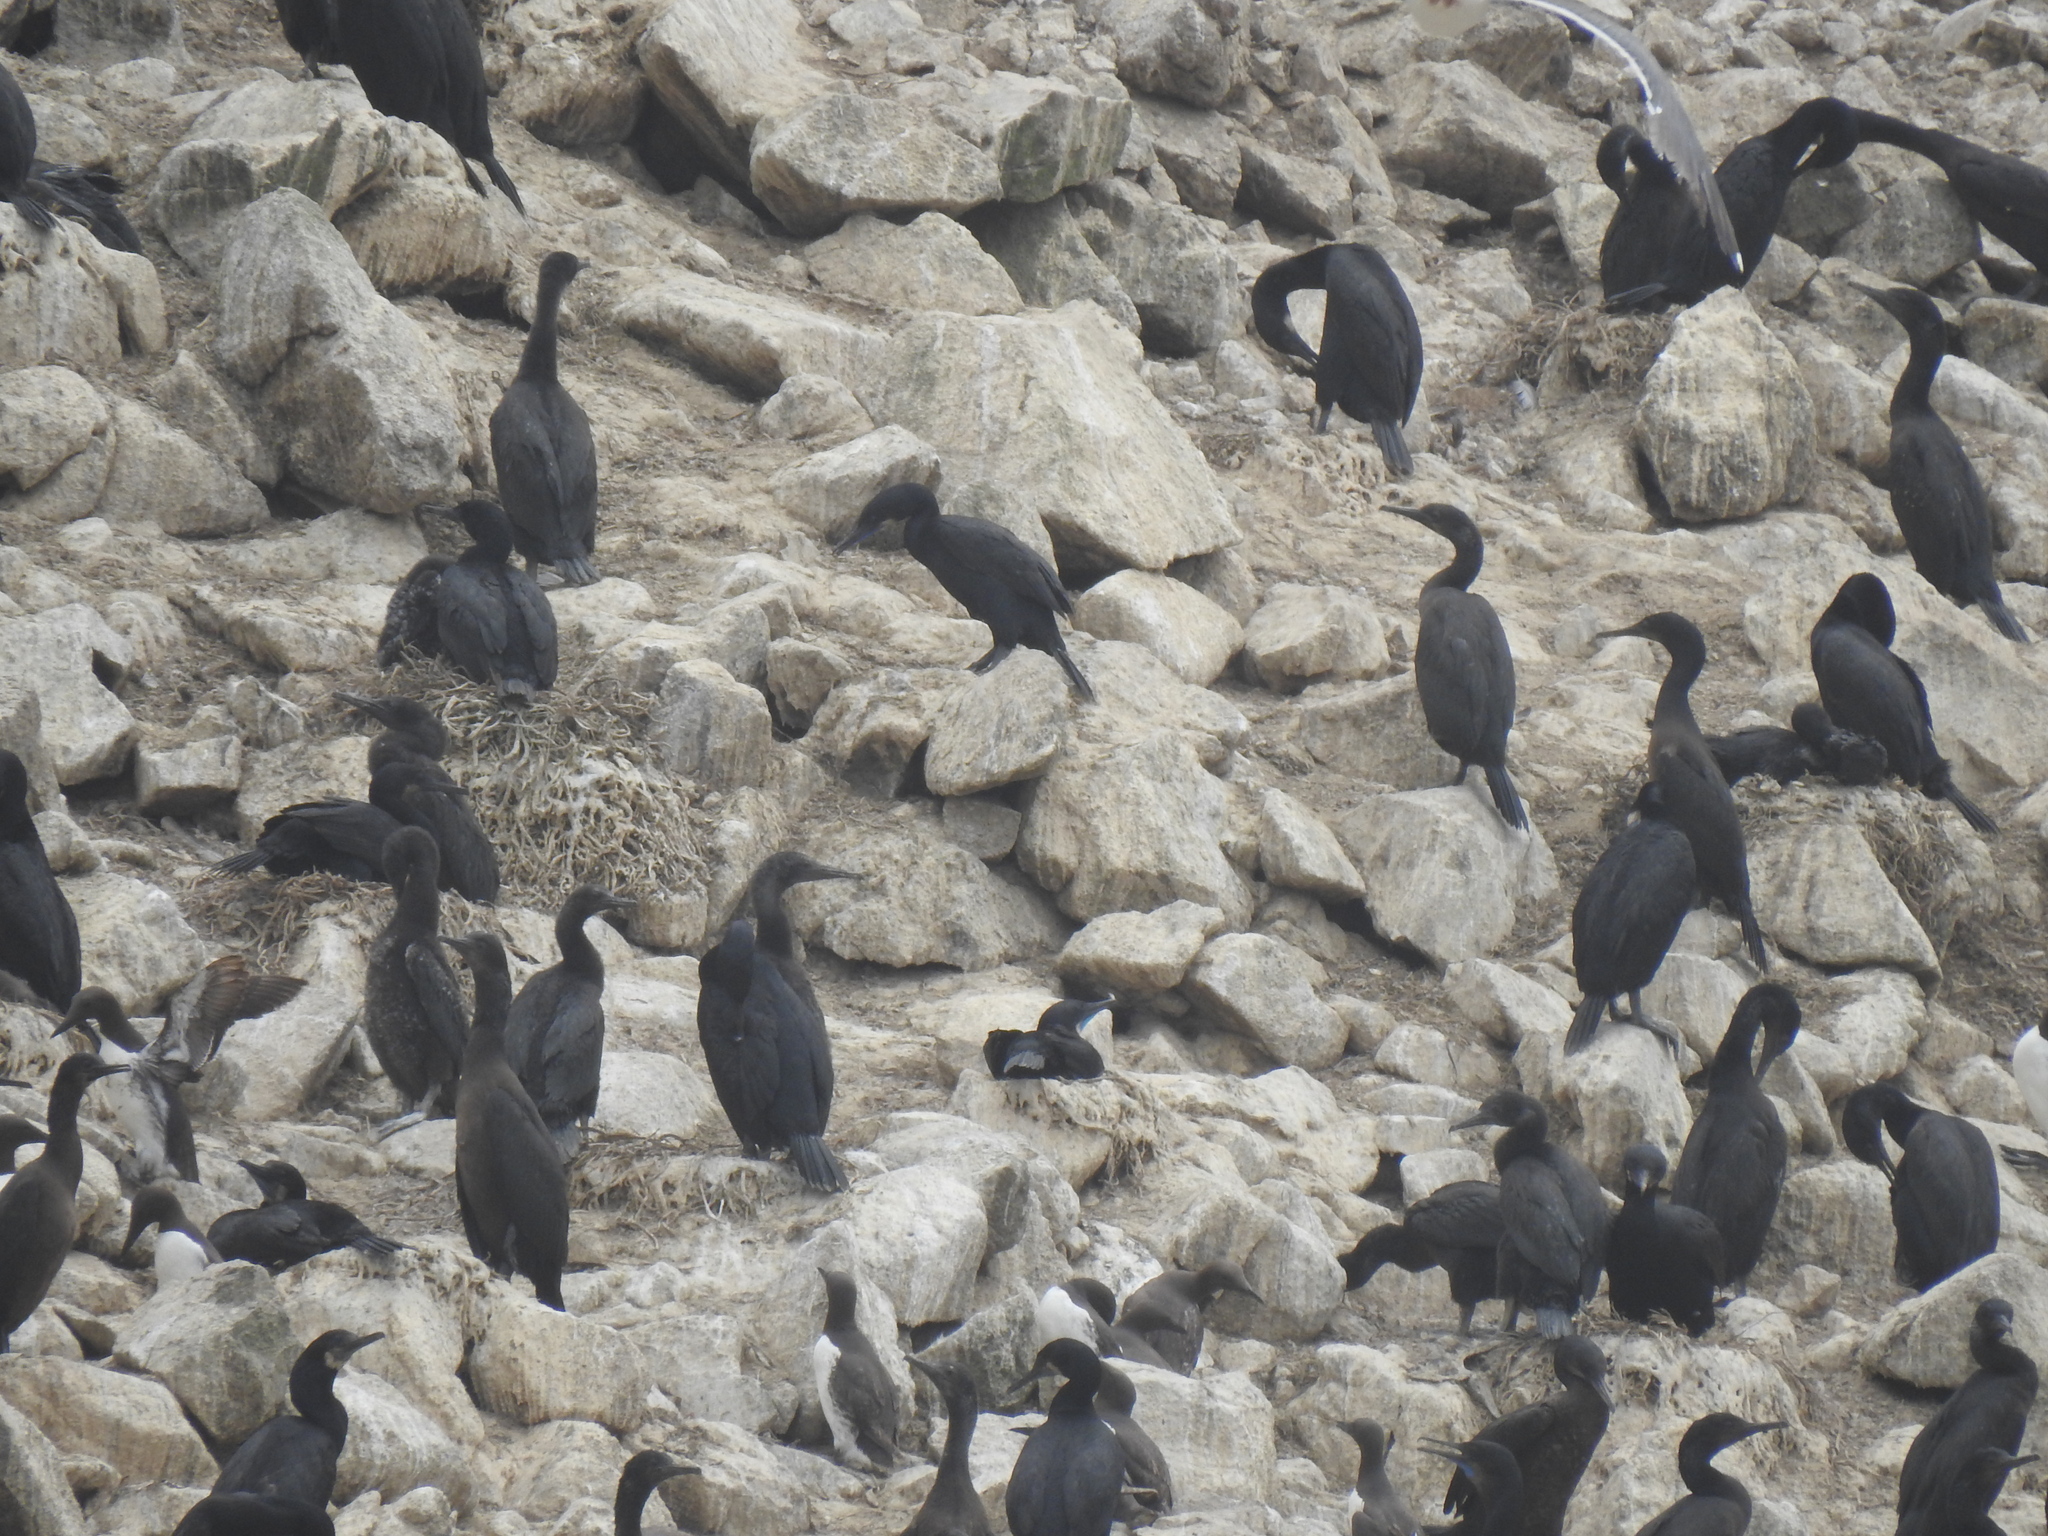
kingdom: Animalia
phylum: Chordata
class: Aves
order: Suliformes
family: Phalacrocoracidae
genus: Urile
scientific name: Urile penicillatus
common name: Brandt's cormorant
